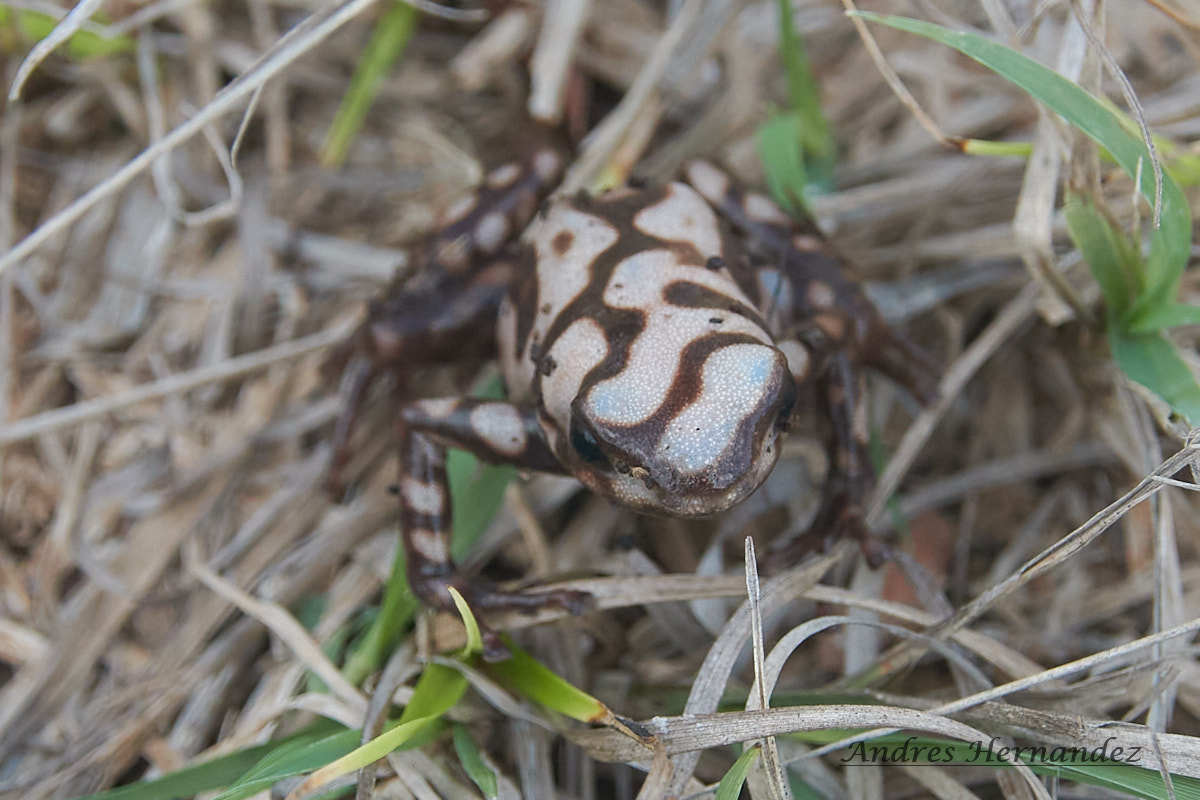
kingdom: Animalia
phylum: Chordata
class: Amphibia
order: Anura
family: Dendrobatidae
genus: Dendrobates
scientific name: Dendrobates auratus
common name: Green and black poison dart frog
